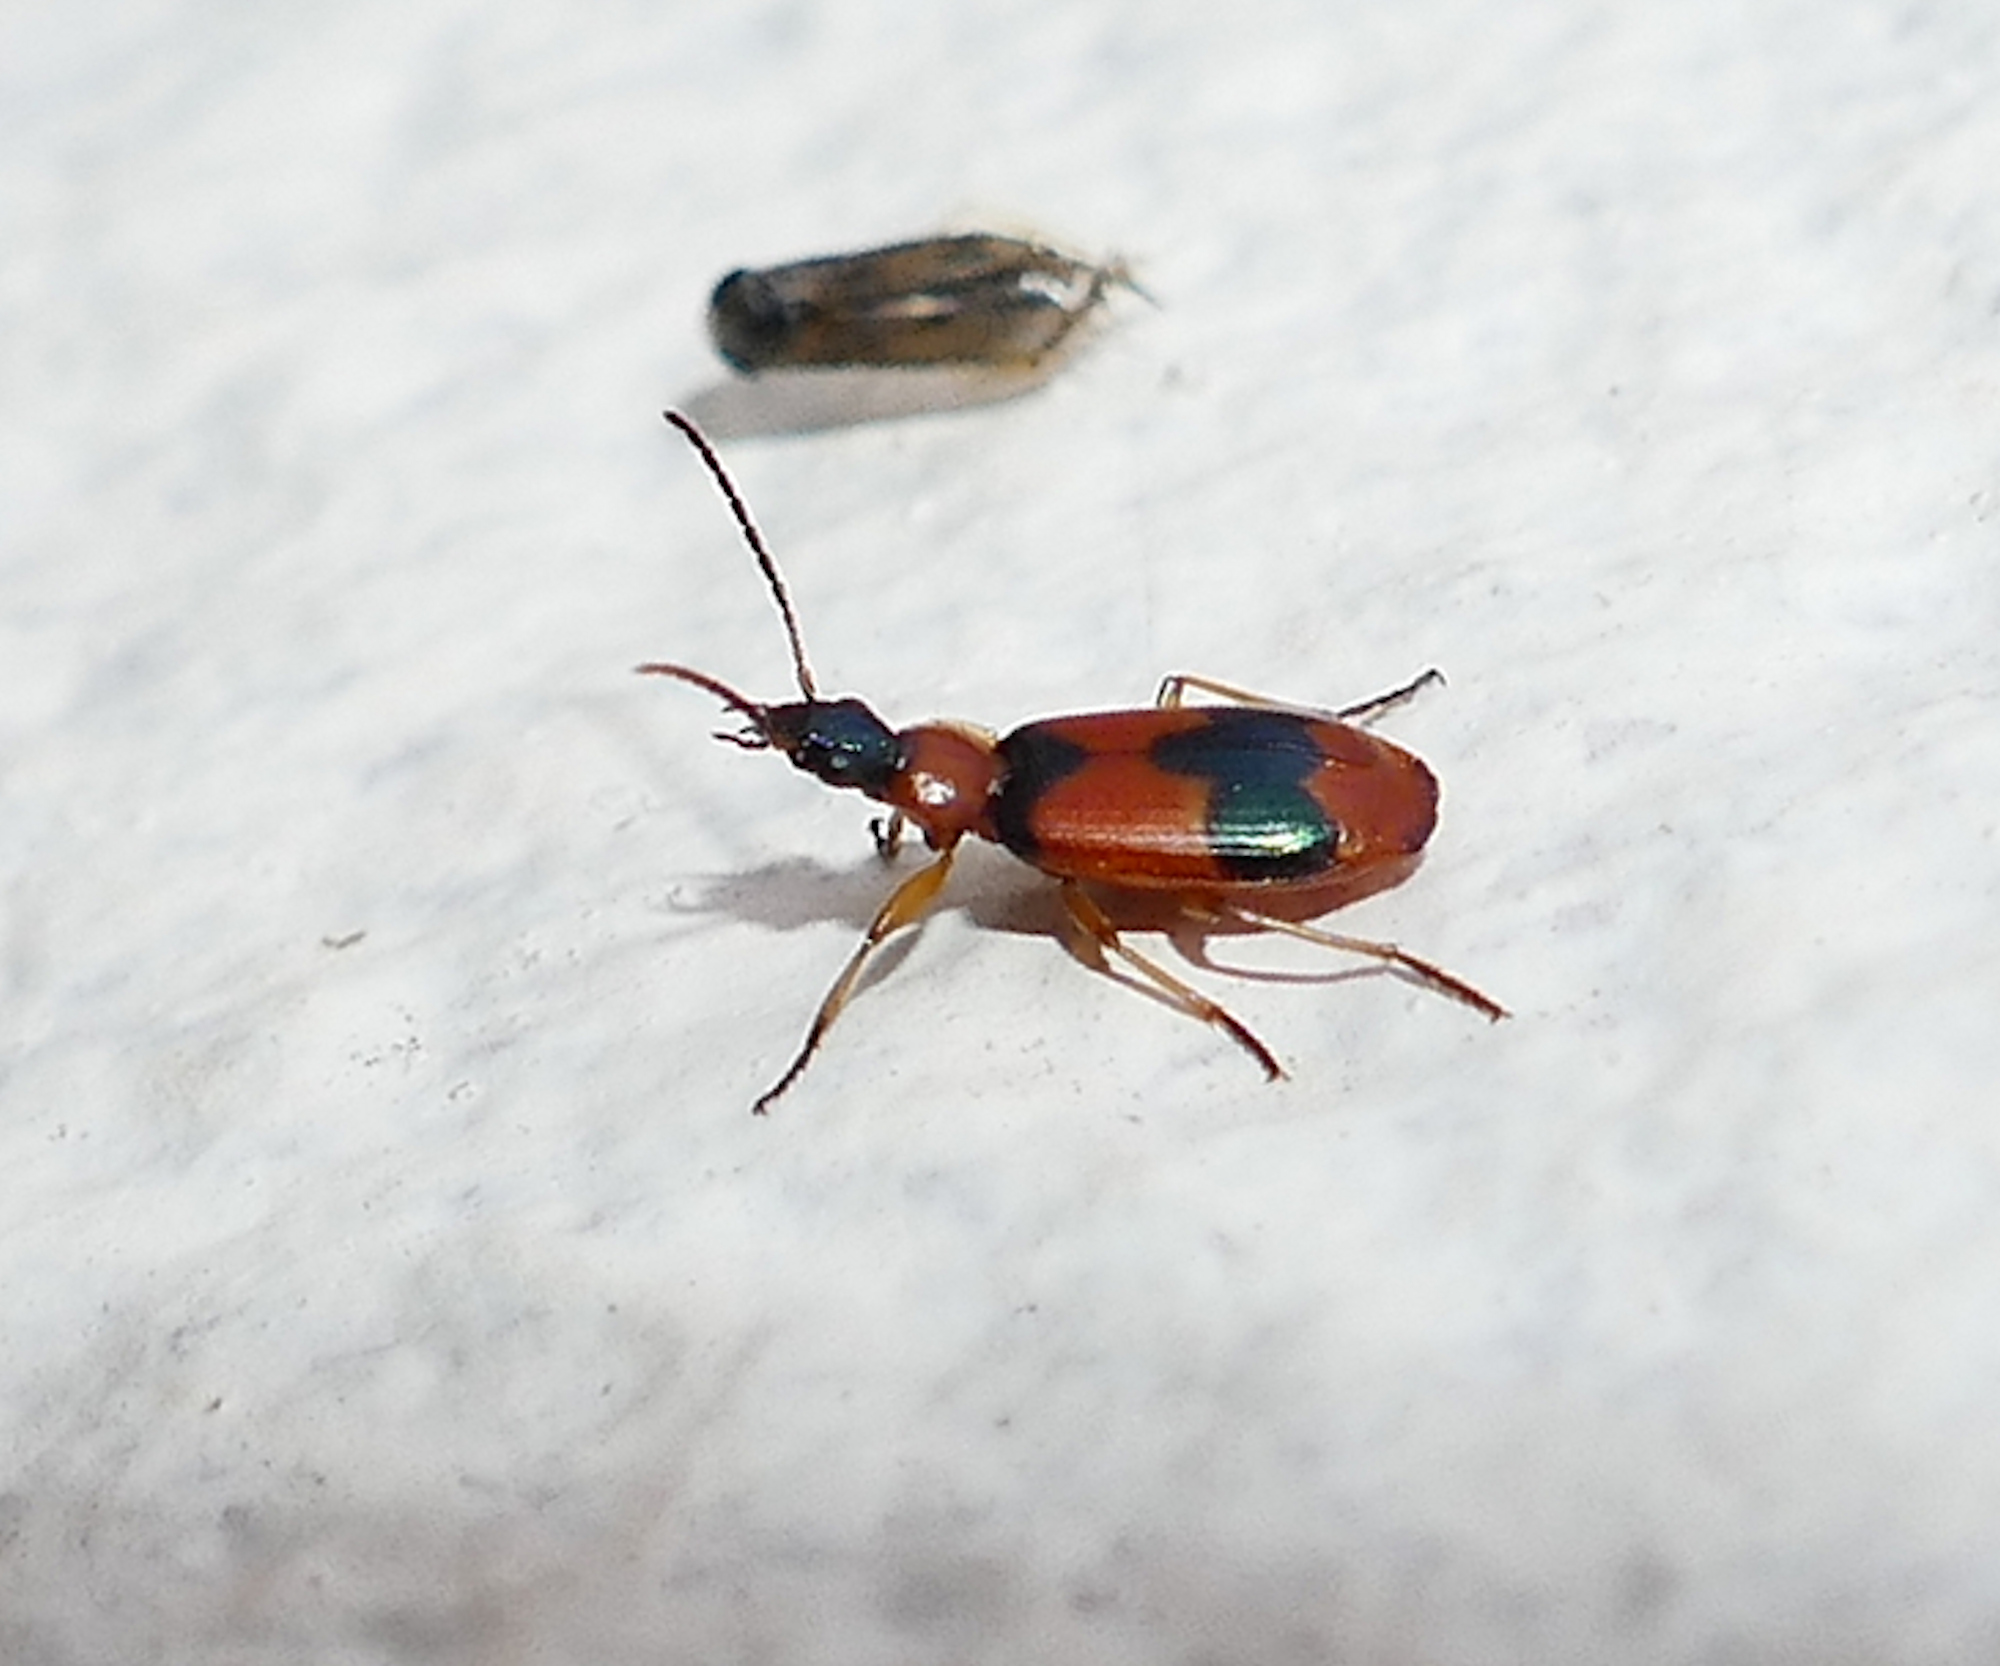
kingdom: Animalia
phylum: Arthropoda
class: Insecta
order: Coleoptera
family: Carabidae
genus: Lebia
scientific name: Lebia pulchella
